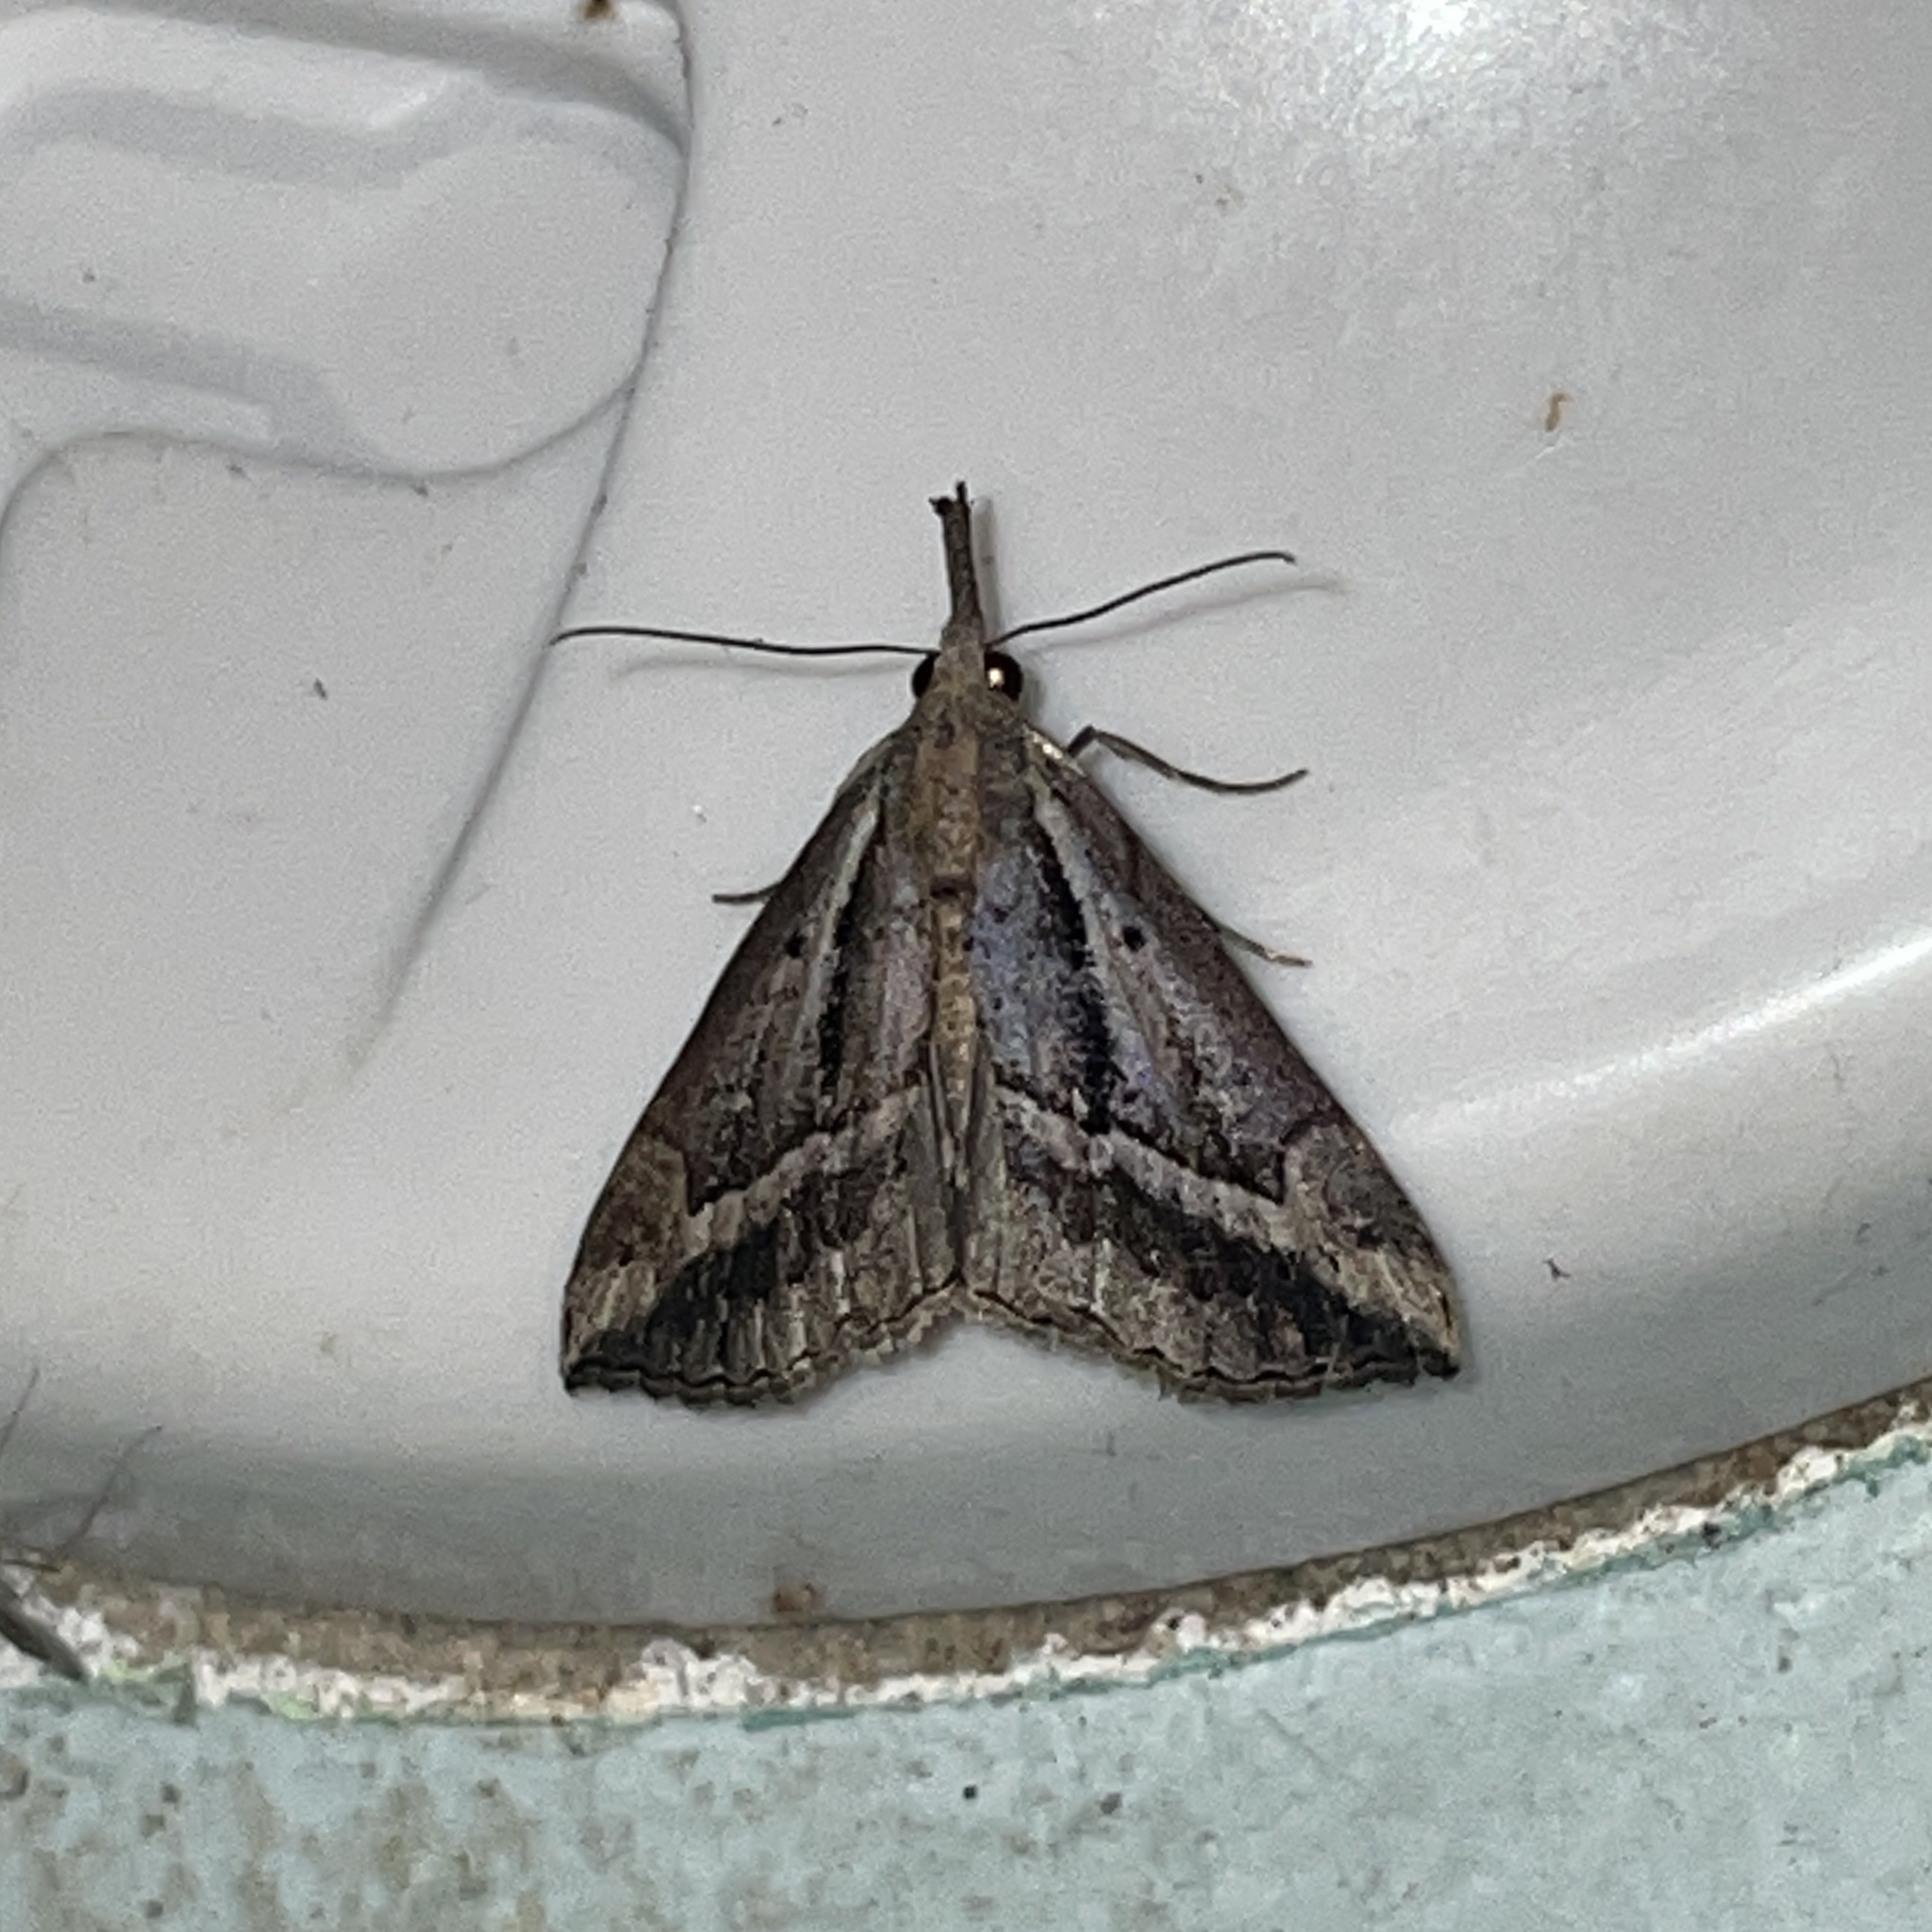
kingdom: Animalia
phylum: Arthropoda
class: Insecta
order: Lepidoptera
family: Erebidae
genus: Hypena
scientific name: Hypena fufialis
